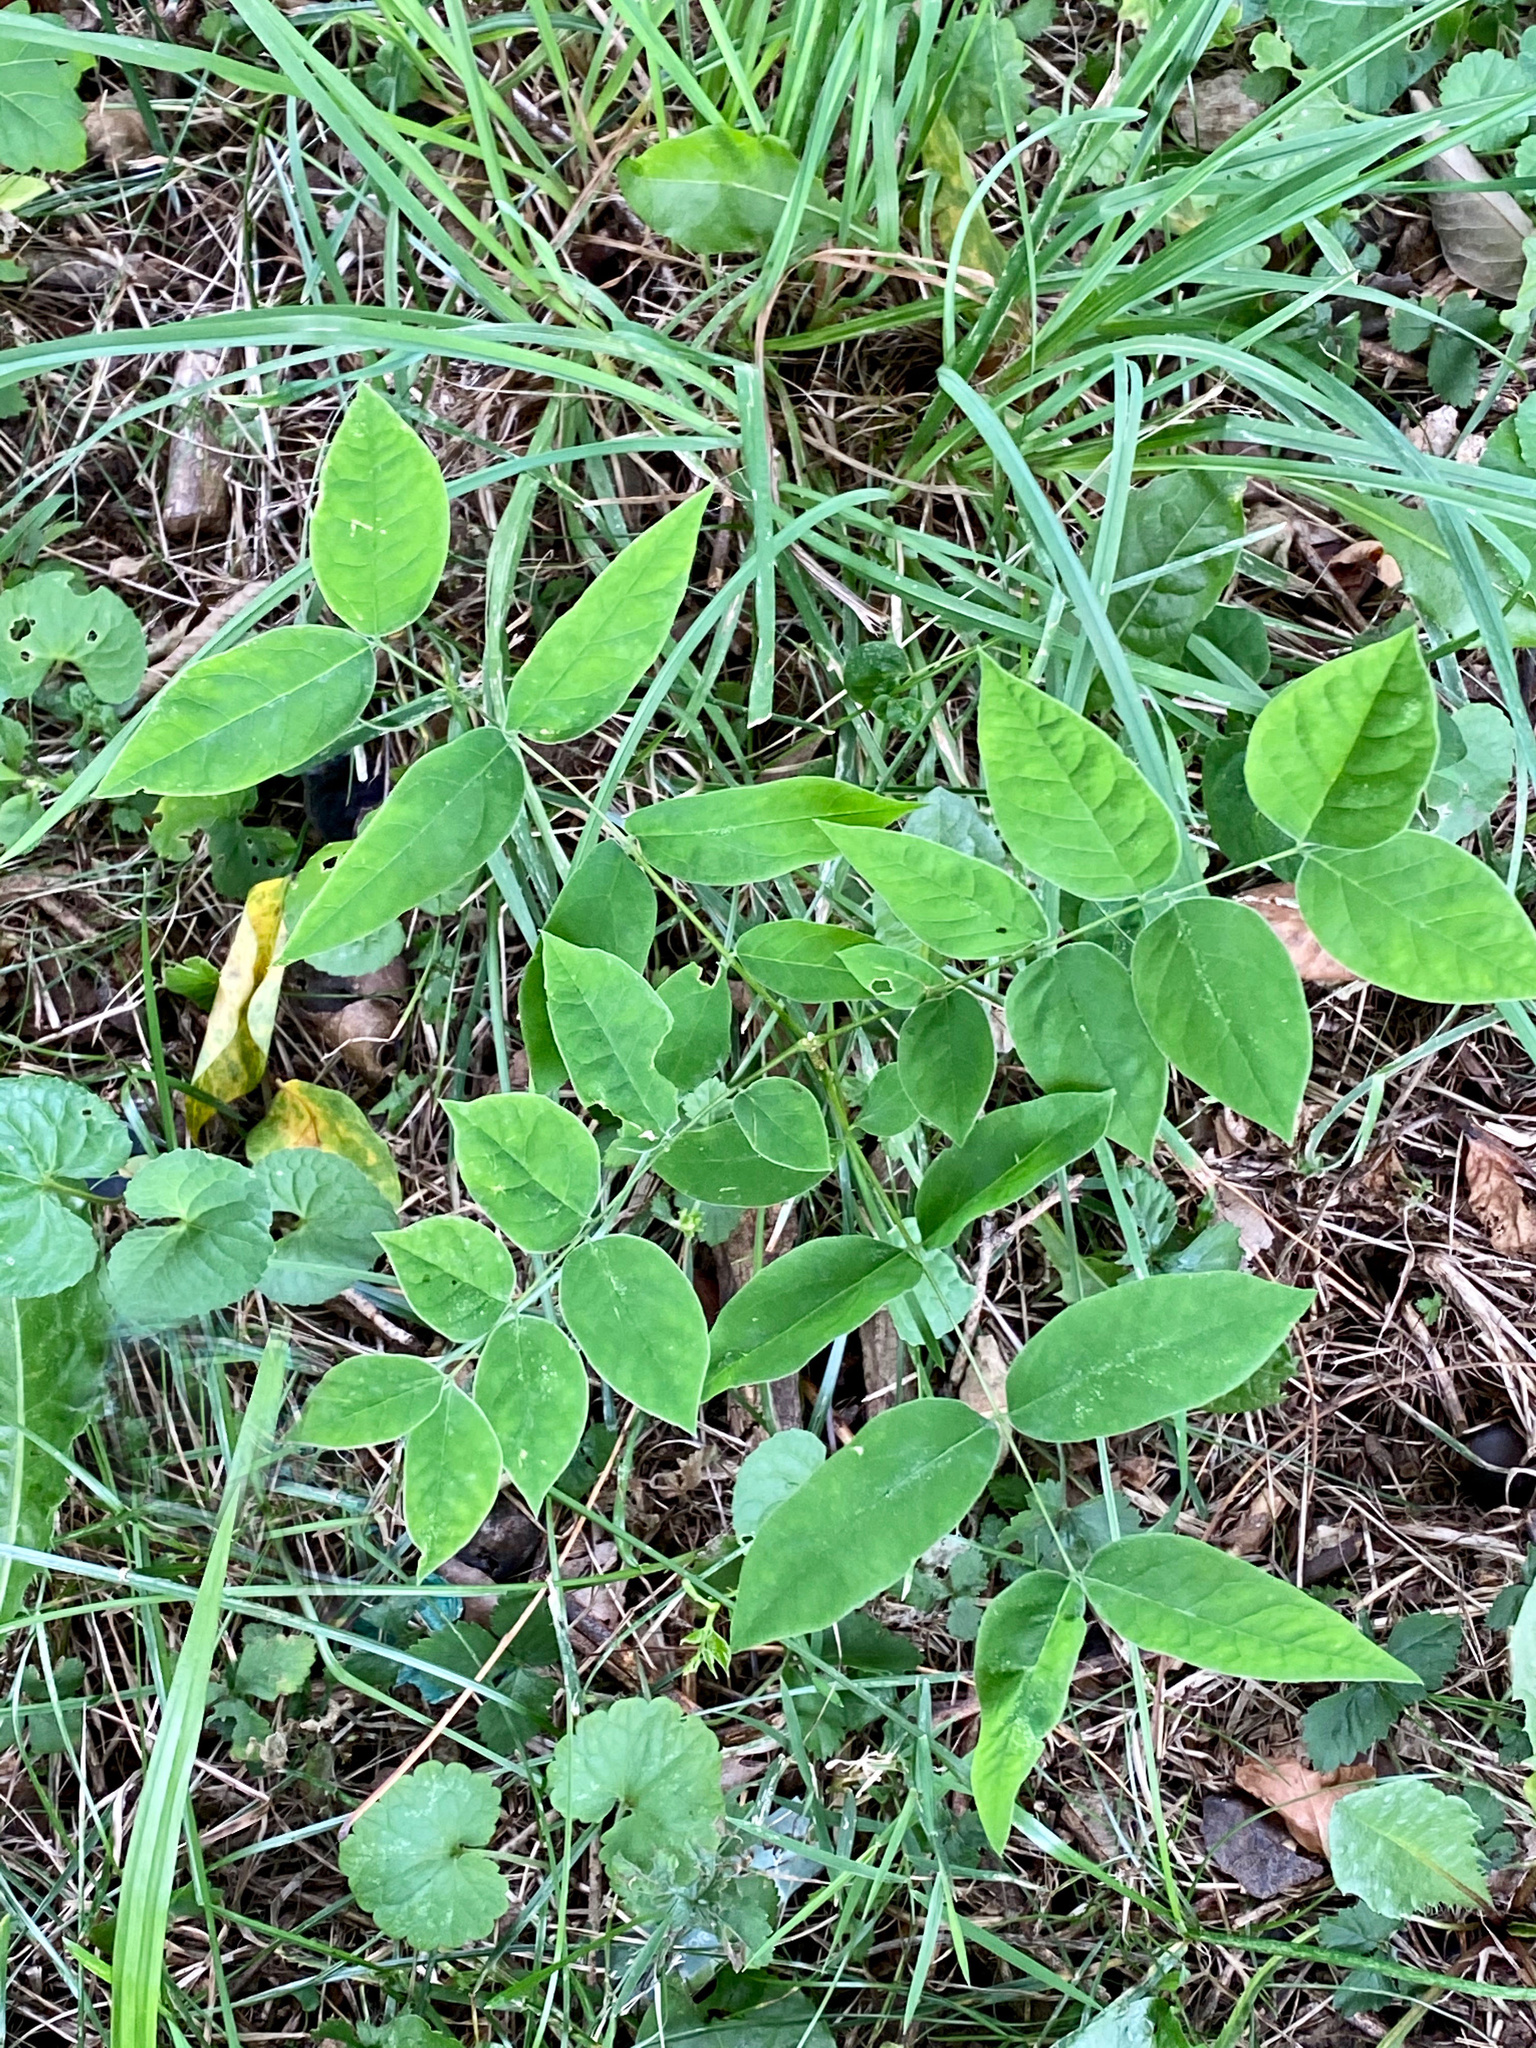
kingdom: Plantae
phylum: Tracheophyta
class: Magnoliopsida
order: Fabales
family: Fabaceae
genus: Gymnocladus
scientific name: Gymnocladus dioicus
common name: Kentucky coffee-tree
